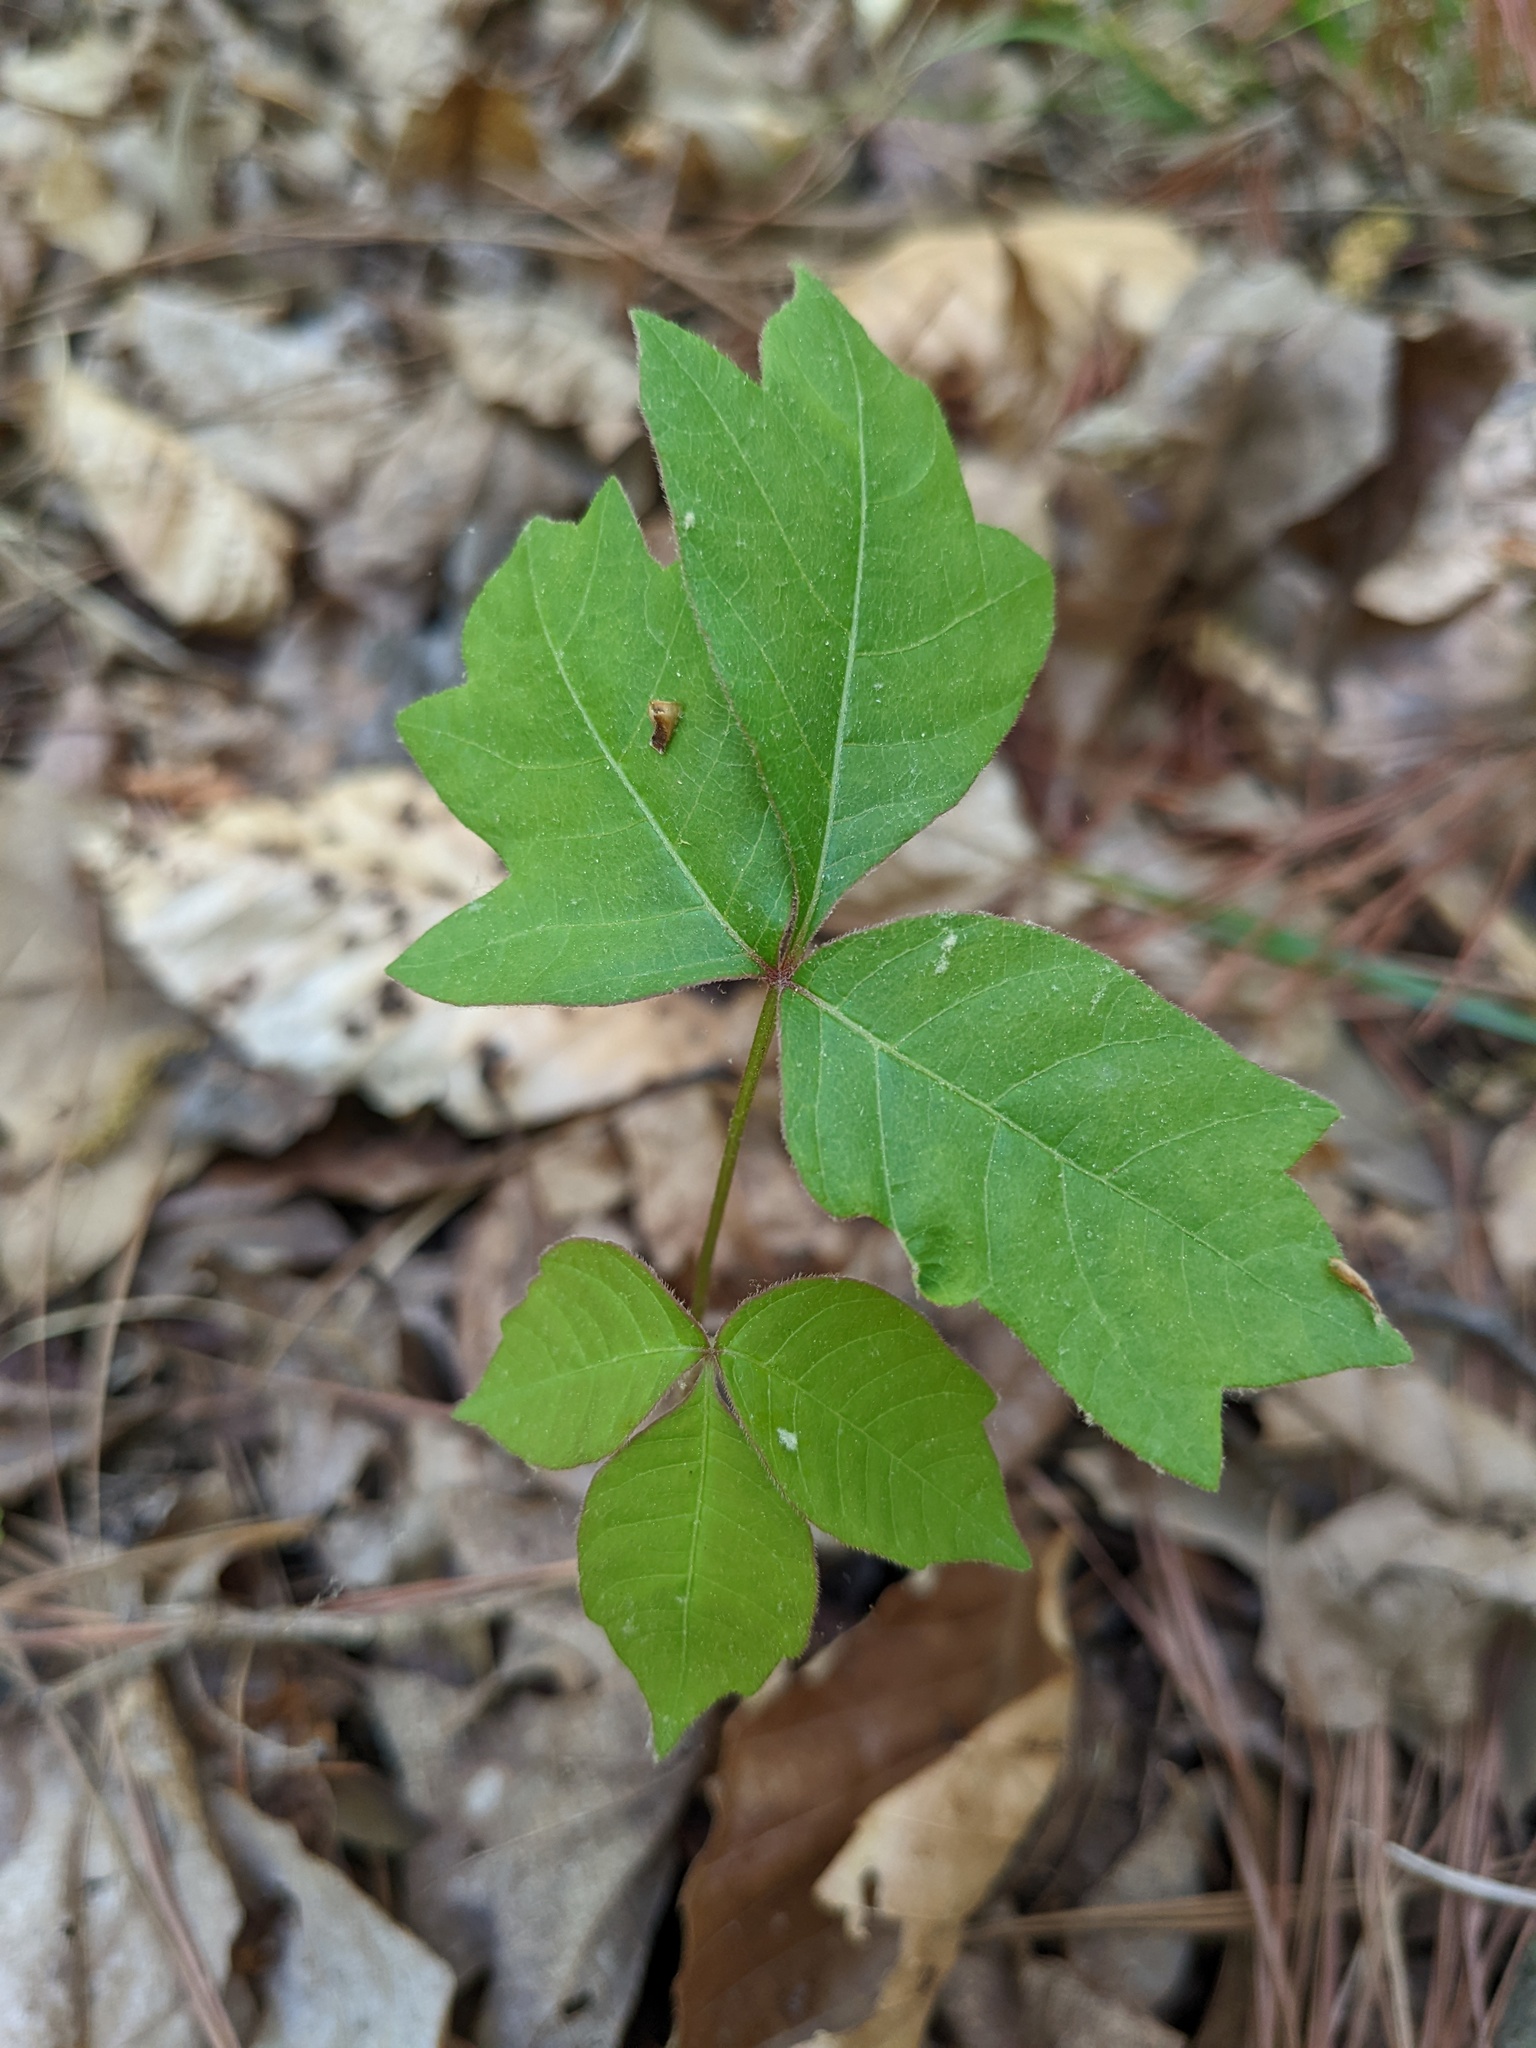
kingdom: Plantae
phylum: Tracheophyta
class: Magnoliopsida
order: Sapindales
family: Anacardiaceae
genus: Toxicodendron
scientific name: Toxicodendron radicans
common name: Poison ivy
